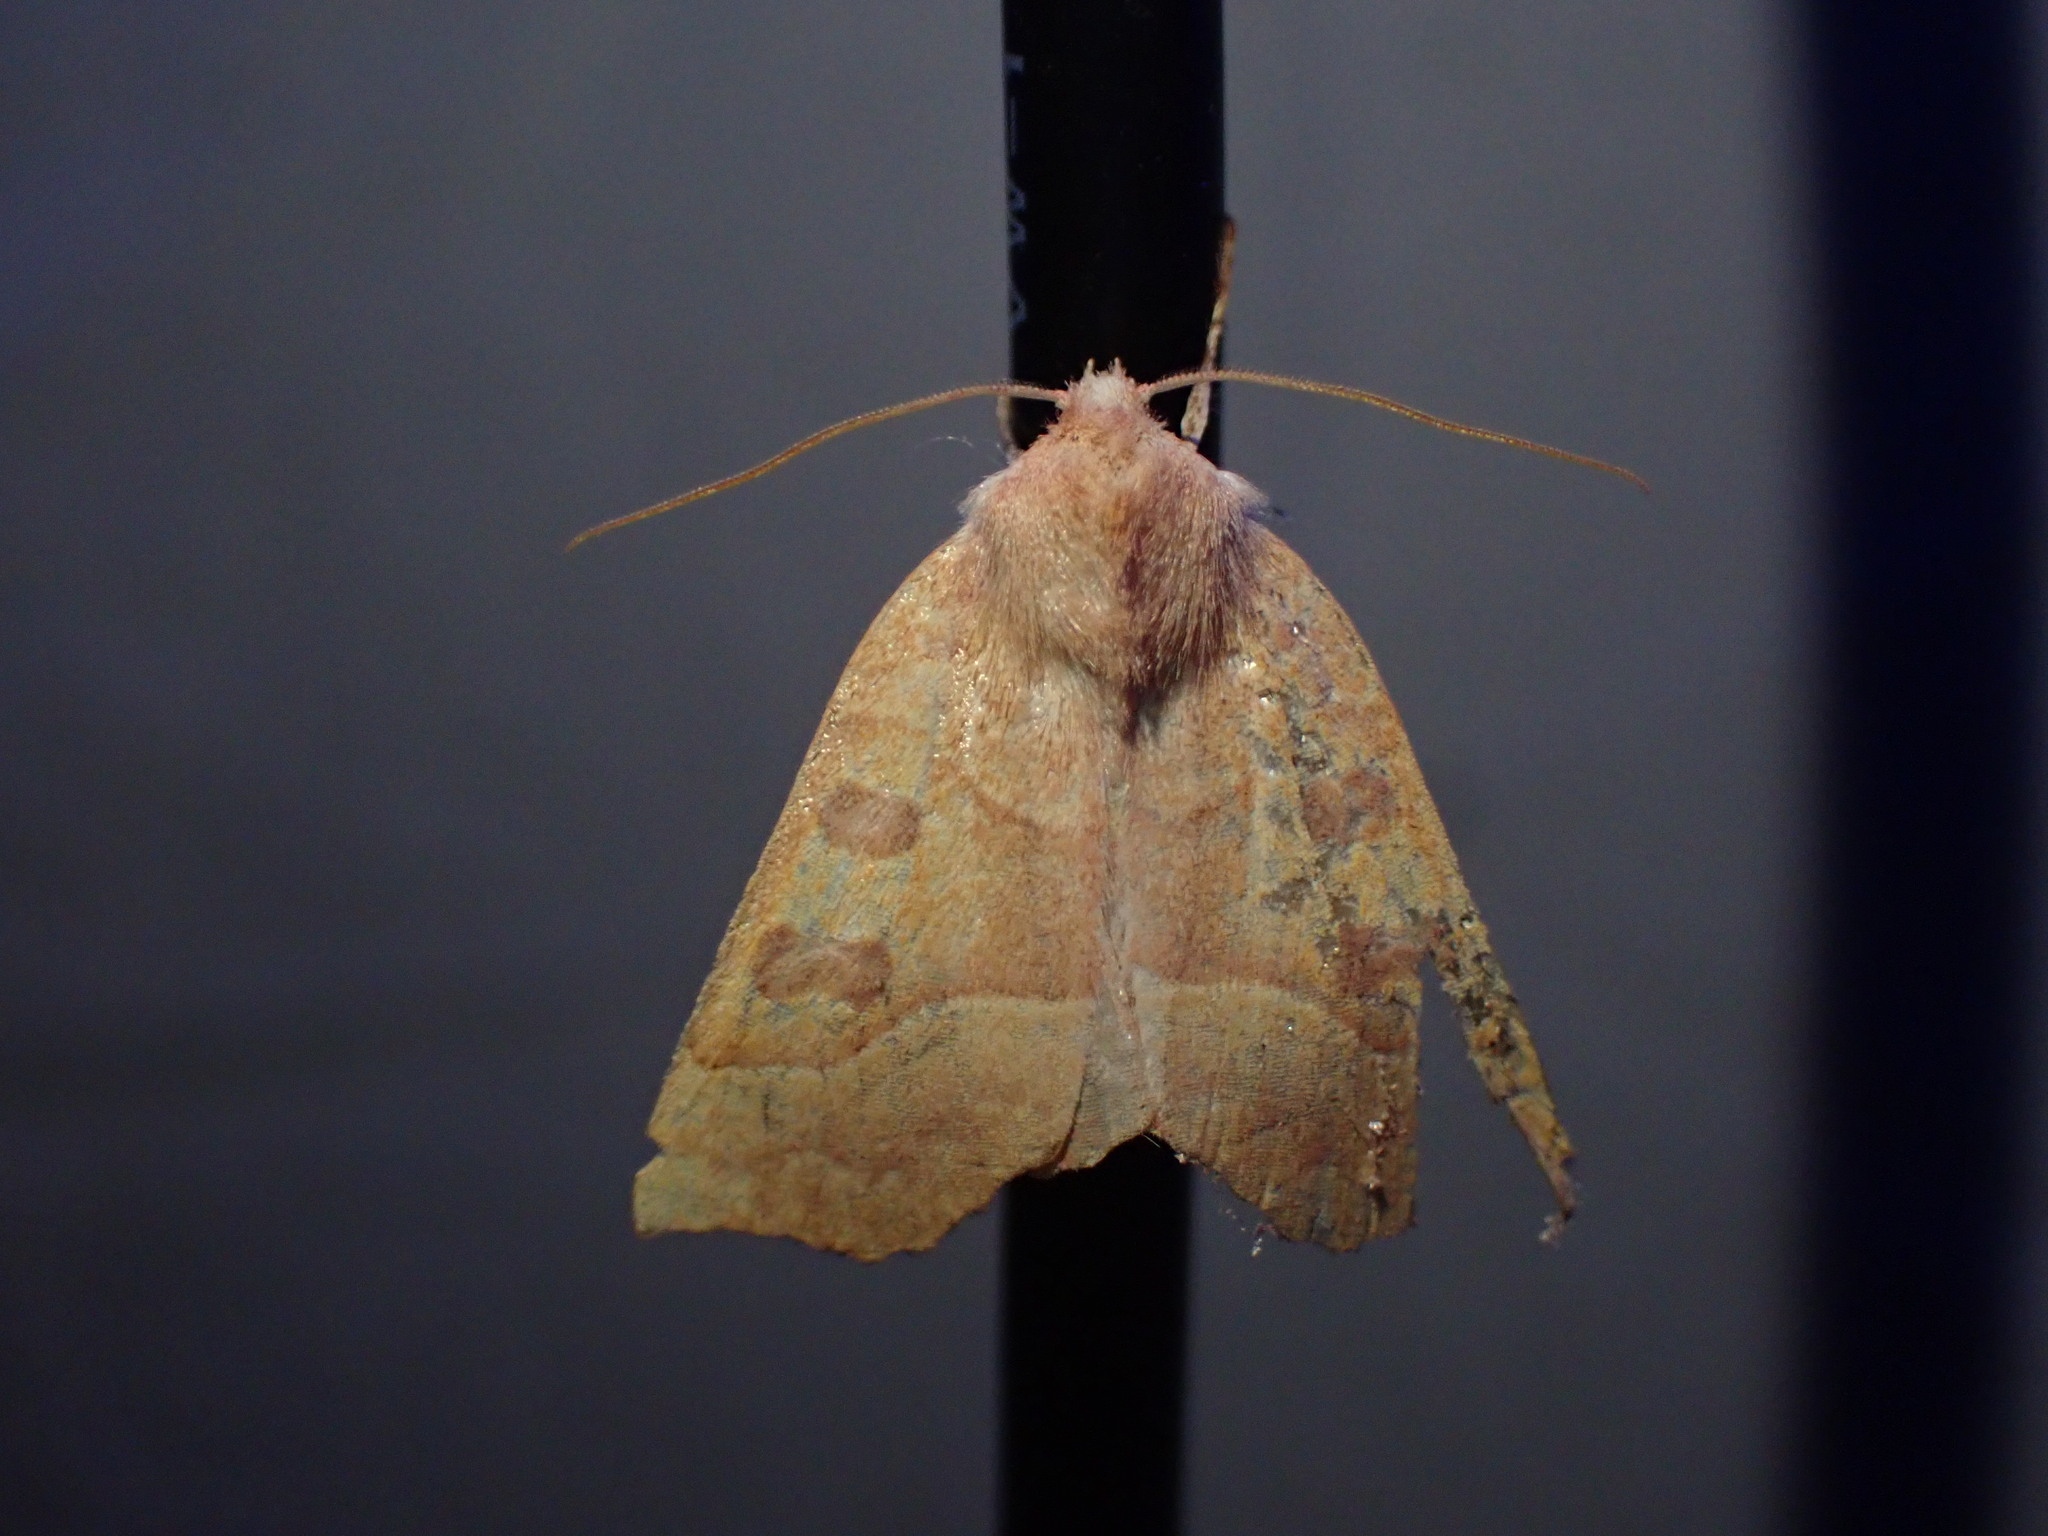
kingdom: Animalia
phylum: Arthropoda
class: Insecta
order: Lepidoptera
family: Noctuidae
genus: Eucirroedia
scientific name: Eucirroedia pampina
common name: Scalloped sallow
